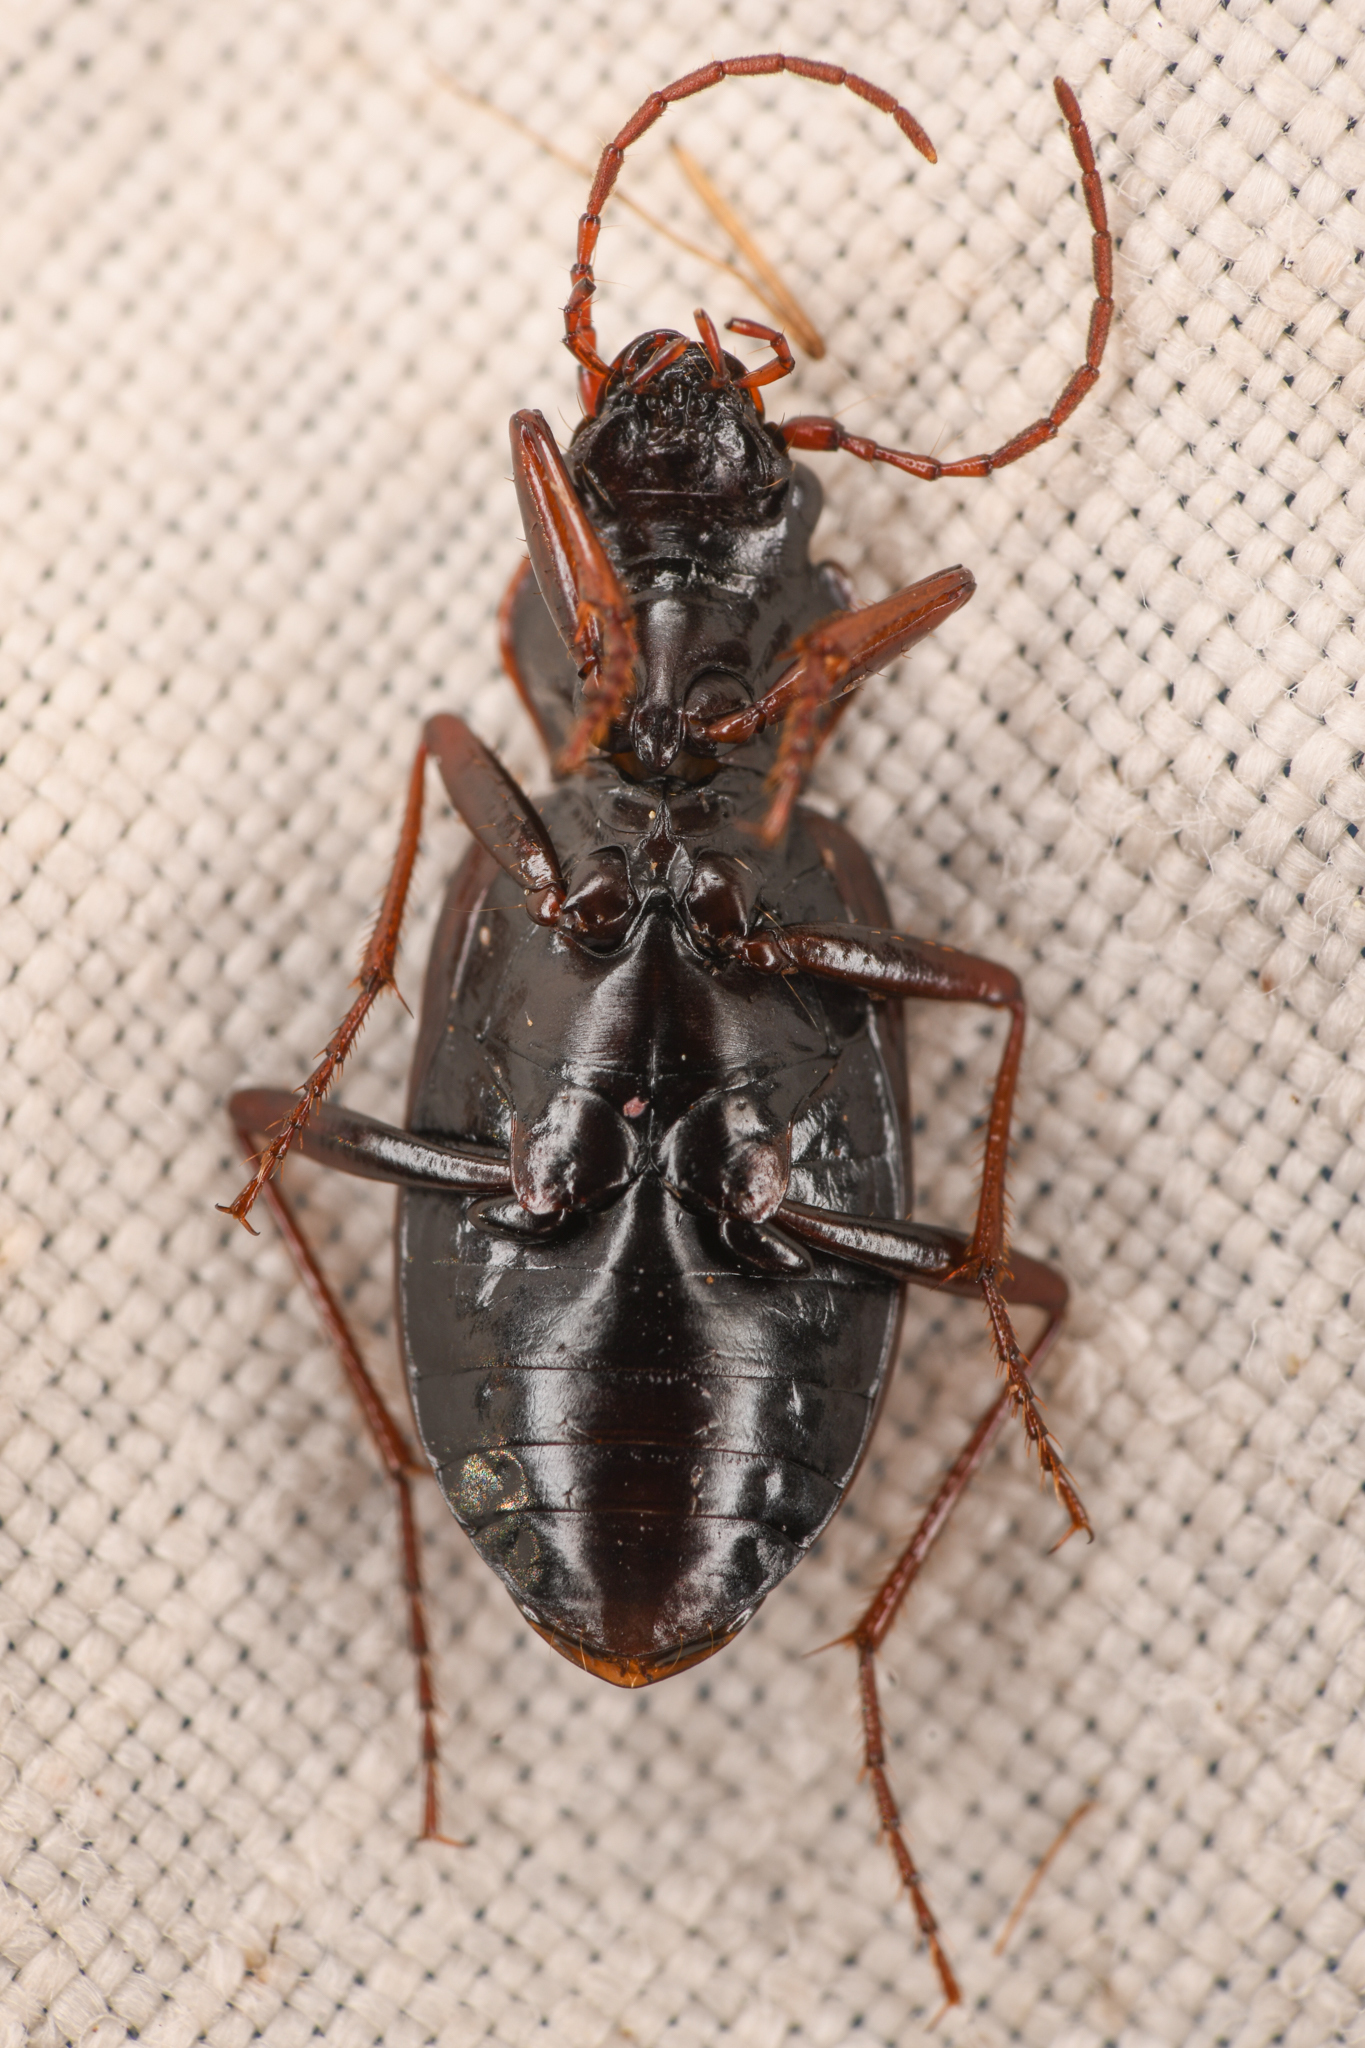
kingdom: Animalia
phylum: Arthropoda
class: Insecta
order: Coleoptera
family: Carabidae
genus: Nebria
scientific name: Nebria intermedia
